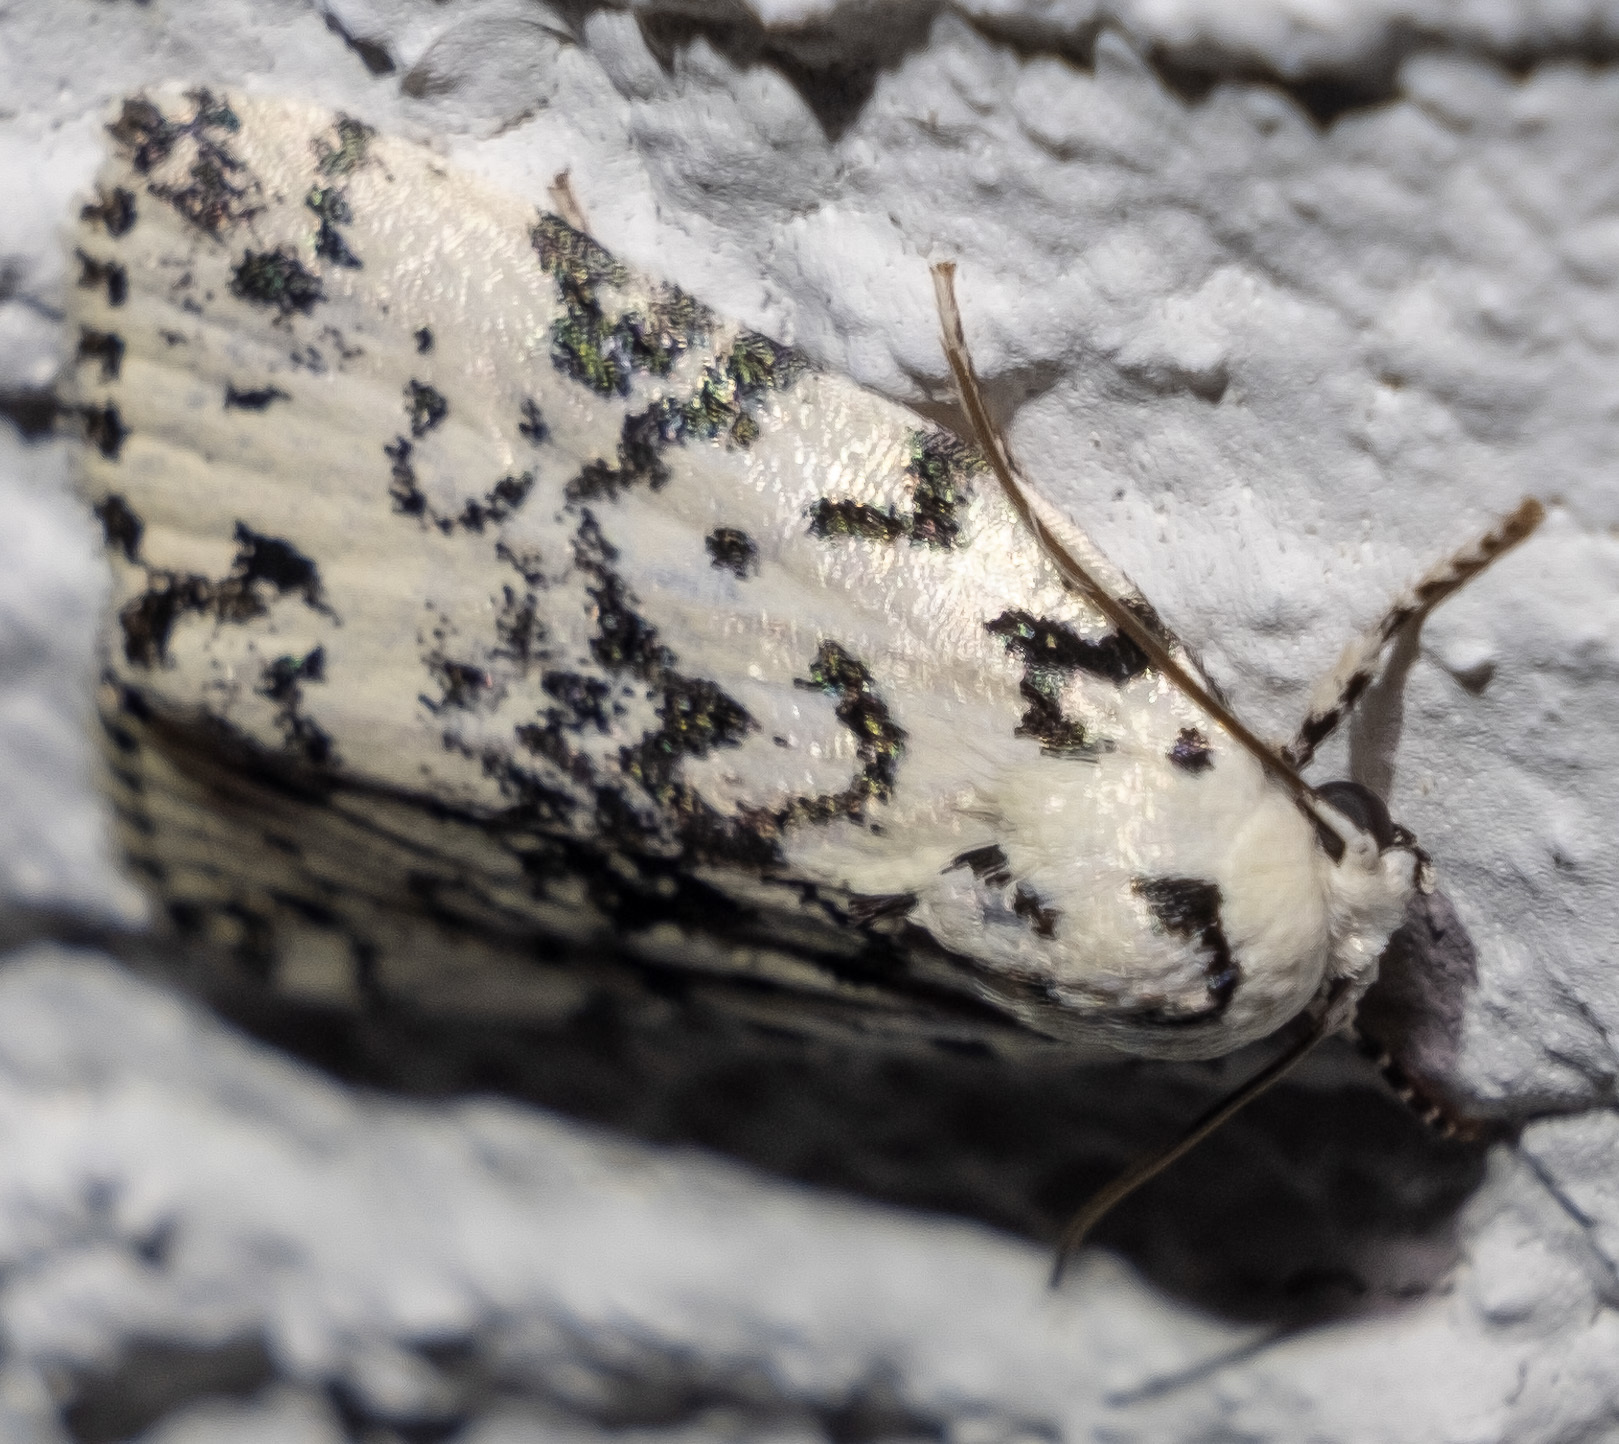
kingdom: Animalia
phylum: Arthropoda
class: Insecta
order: Lepidoptera
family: Noctuidae
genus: Polygrammate
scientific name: Polygrammate hebraeicum
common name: Hebrew moth
